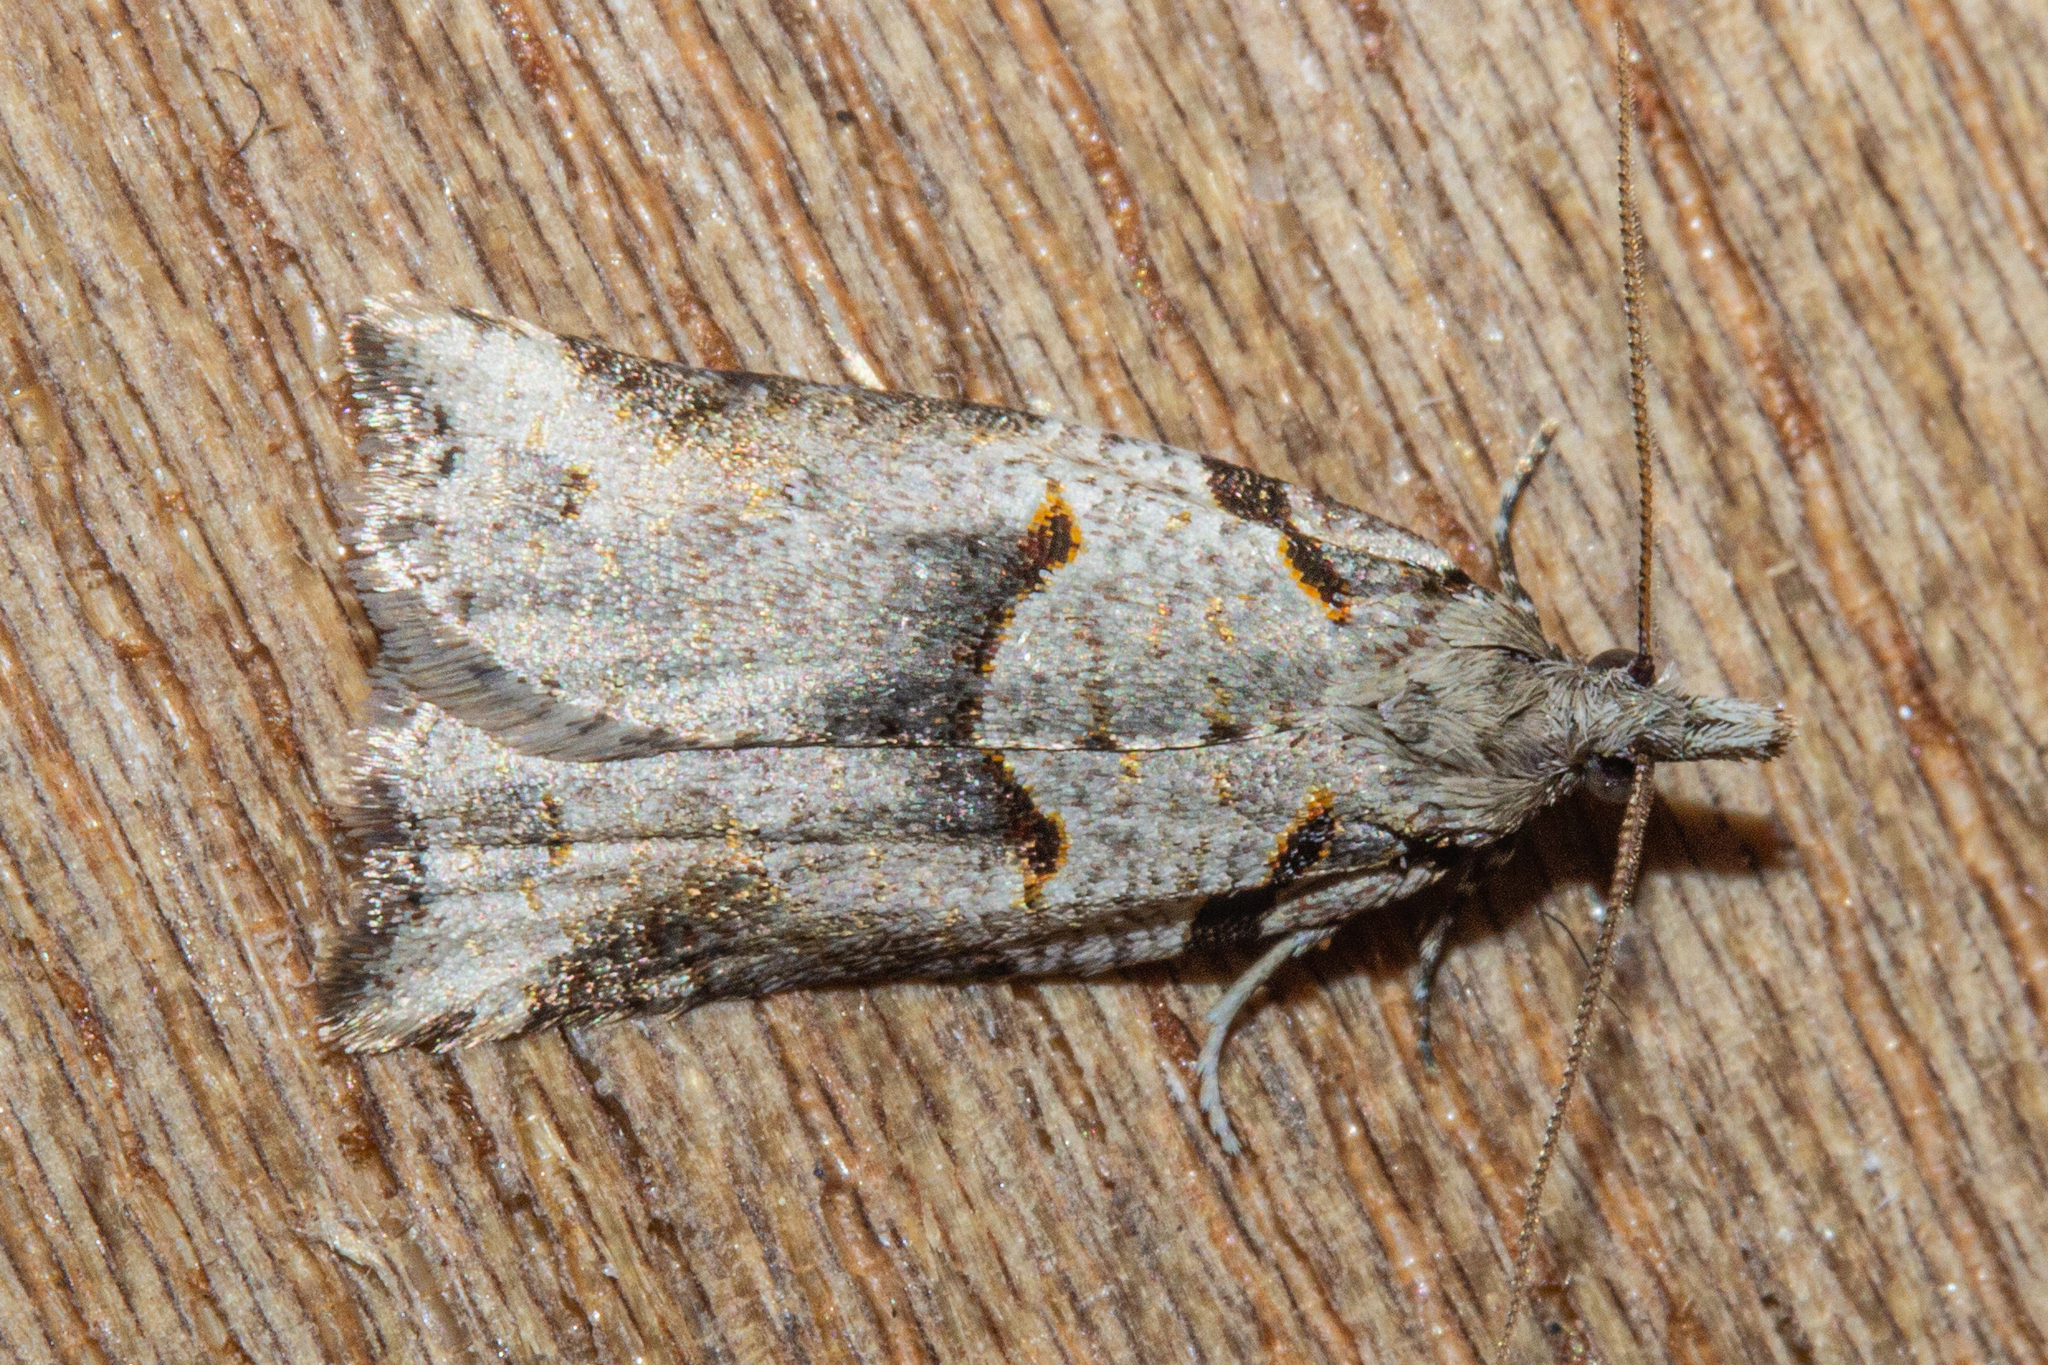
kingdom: Animalia
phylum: Arthropoda
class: Insecta
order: Lepidoptera
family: Tortricidae
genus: Harmologa
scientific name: Harmologa amplexana
